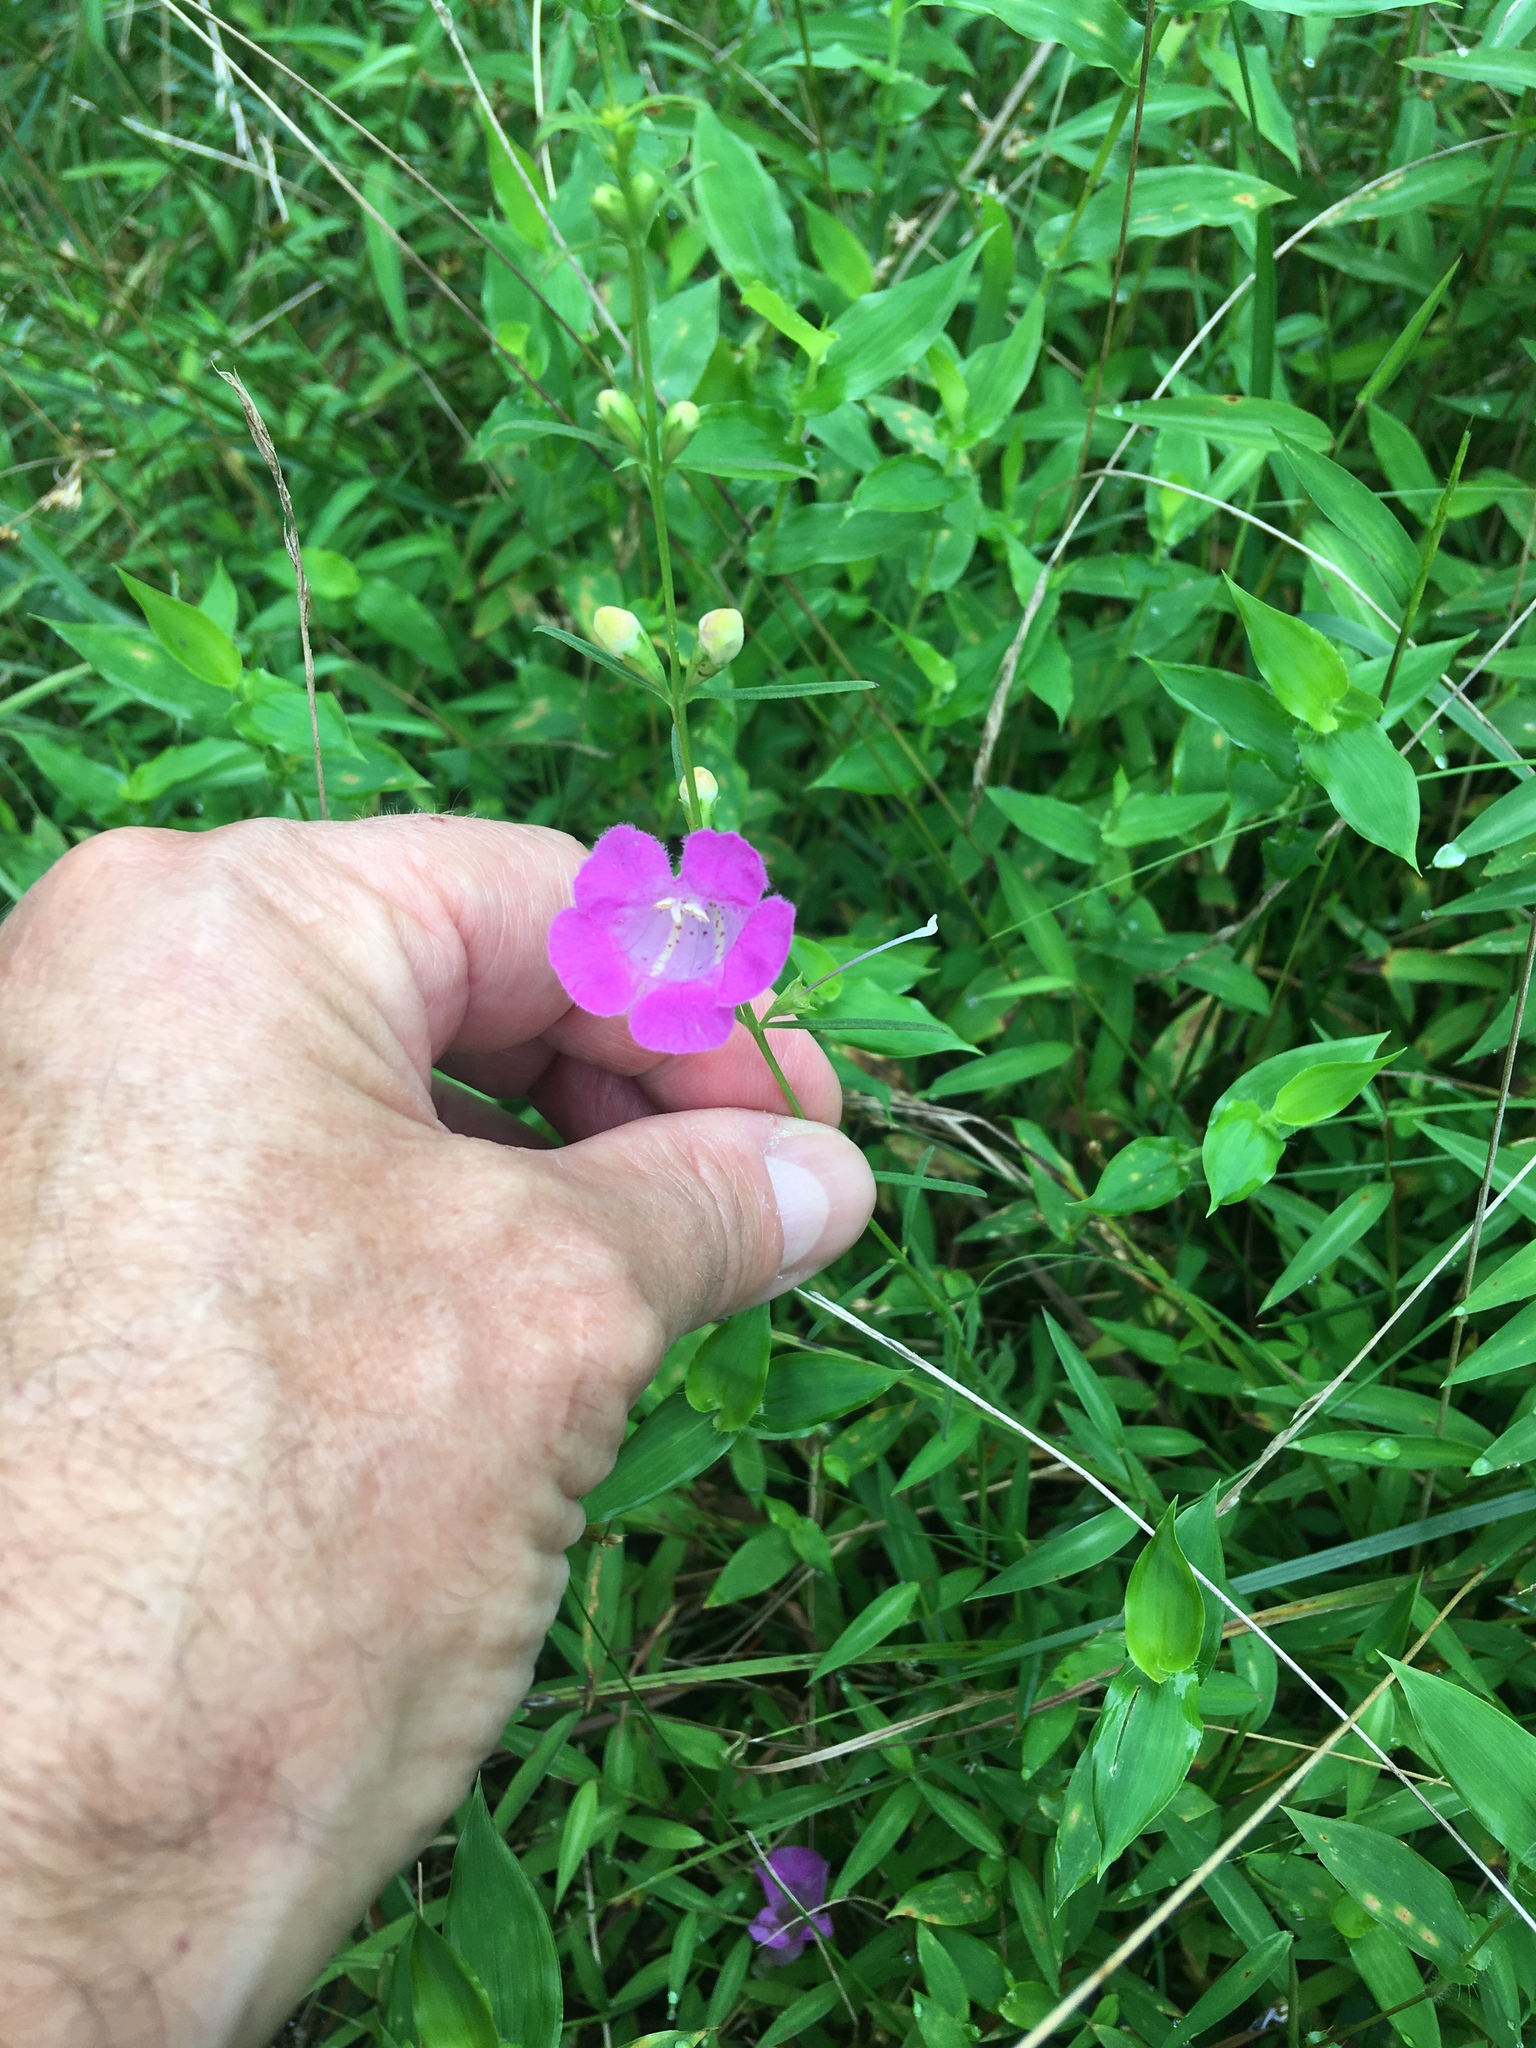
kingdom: Plantae
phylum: Tracheophyta
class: Magnoliopsida
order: Lamiales
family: Orobanchaceae
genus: Agalinis
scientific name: Agalinis purpurea
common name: Purple false foxglove
